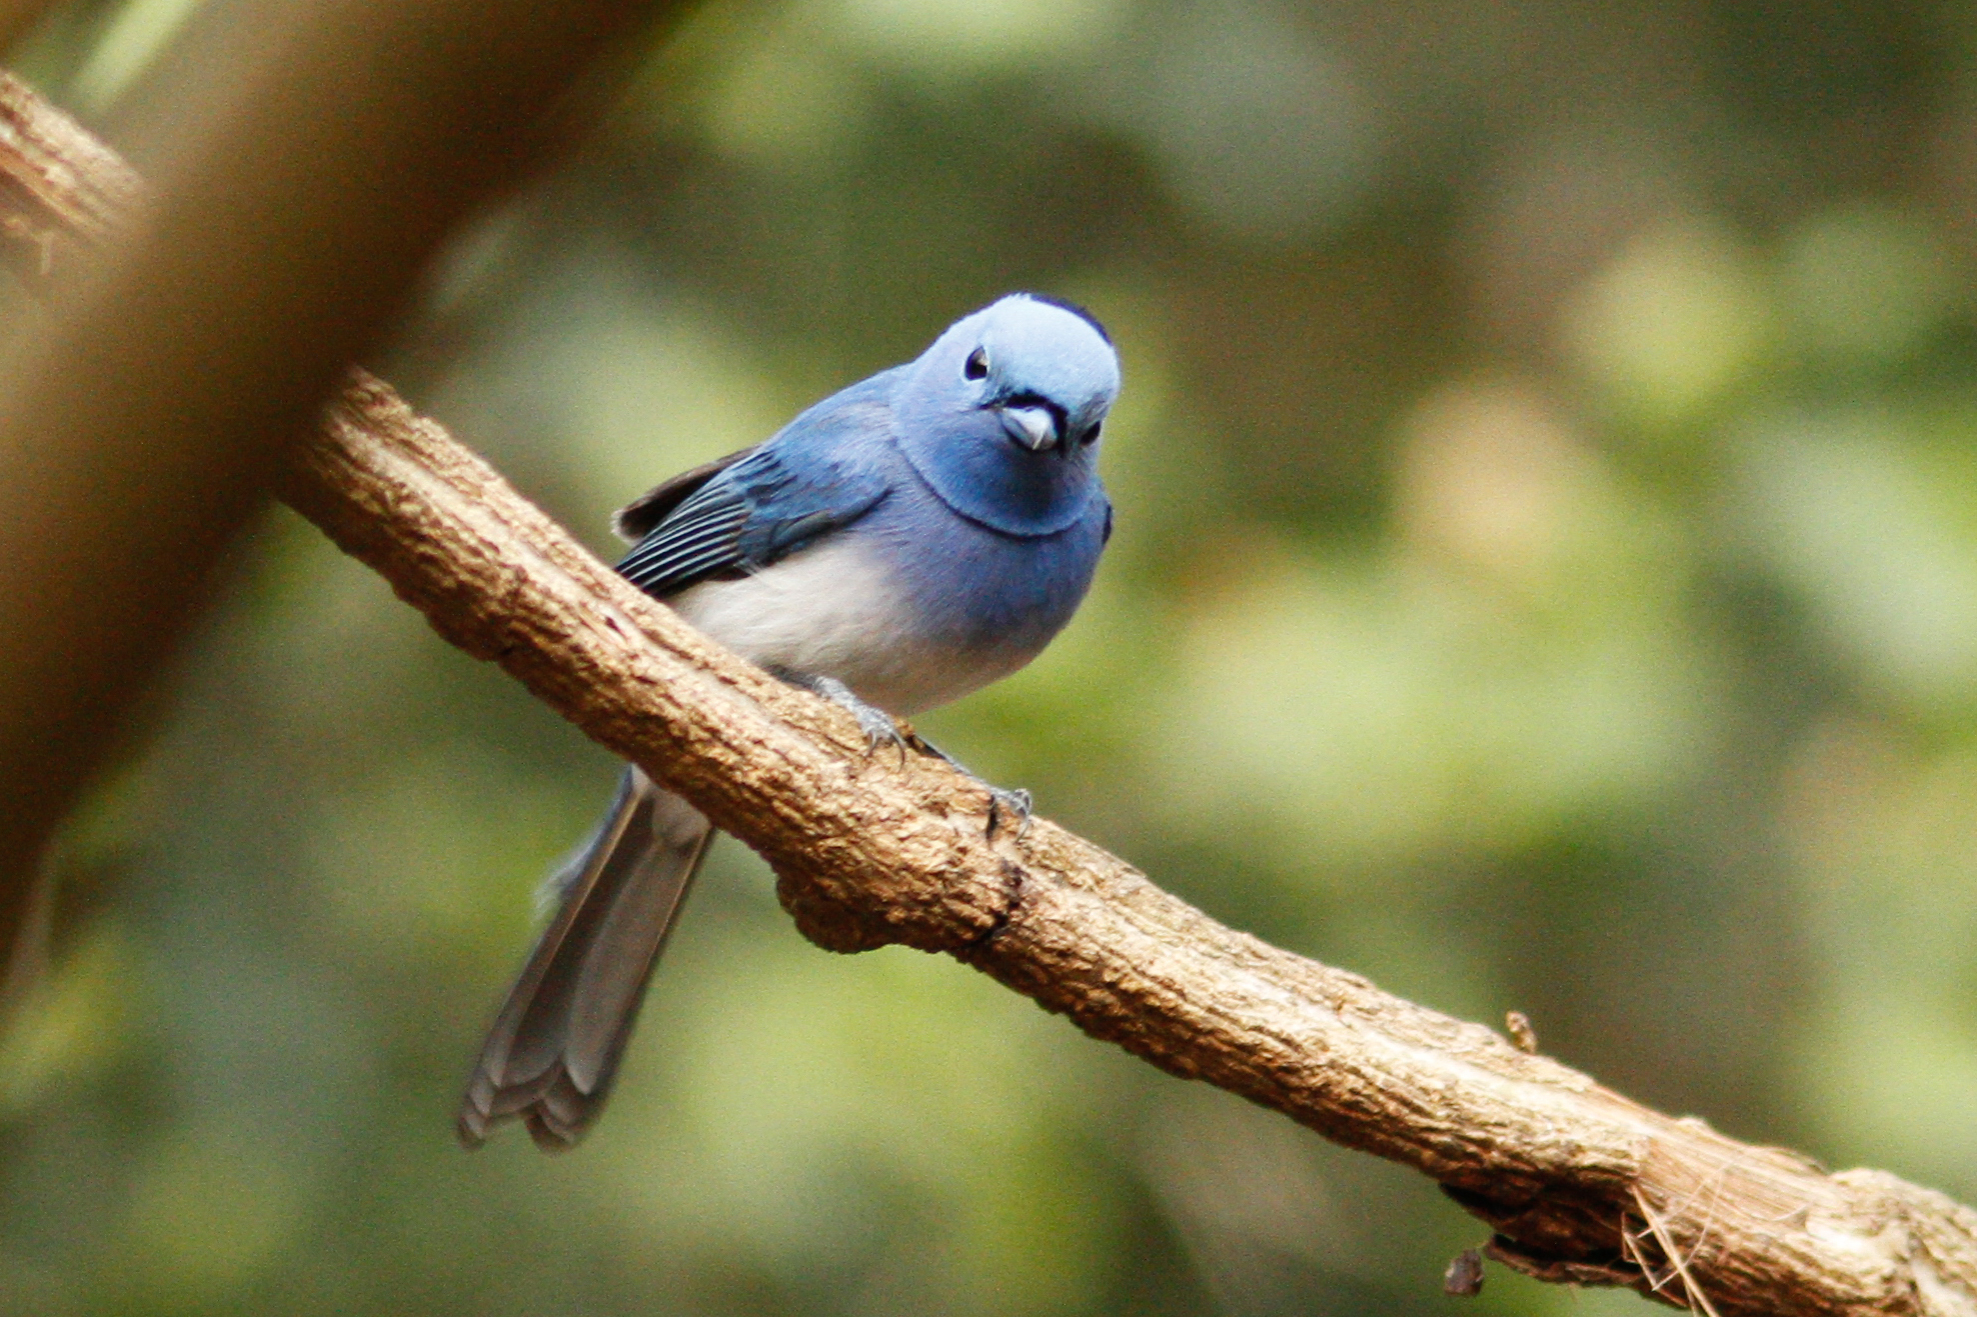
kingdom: Animalia
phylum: Chordata
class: Aves
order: Passeriformes
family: Monarchidae
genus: Hypothymis
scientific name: Hypothymis azurea
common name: Black-naped monarch
